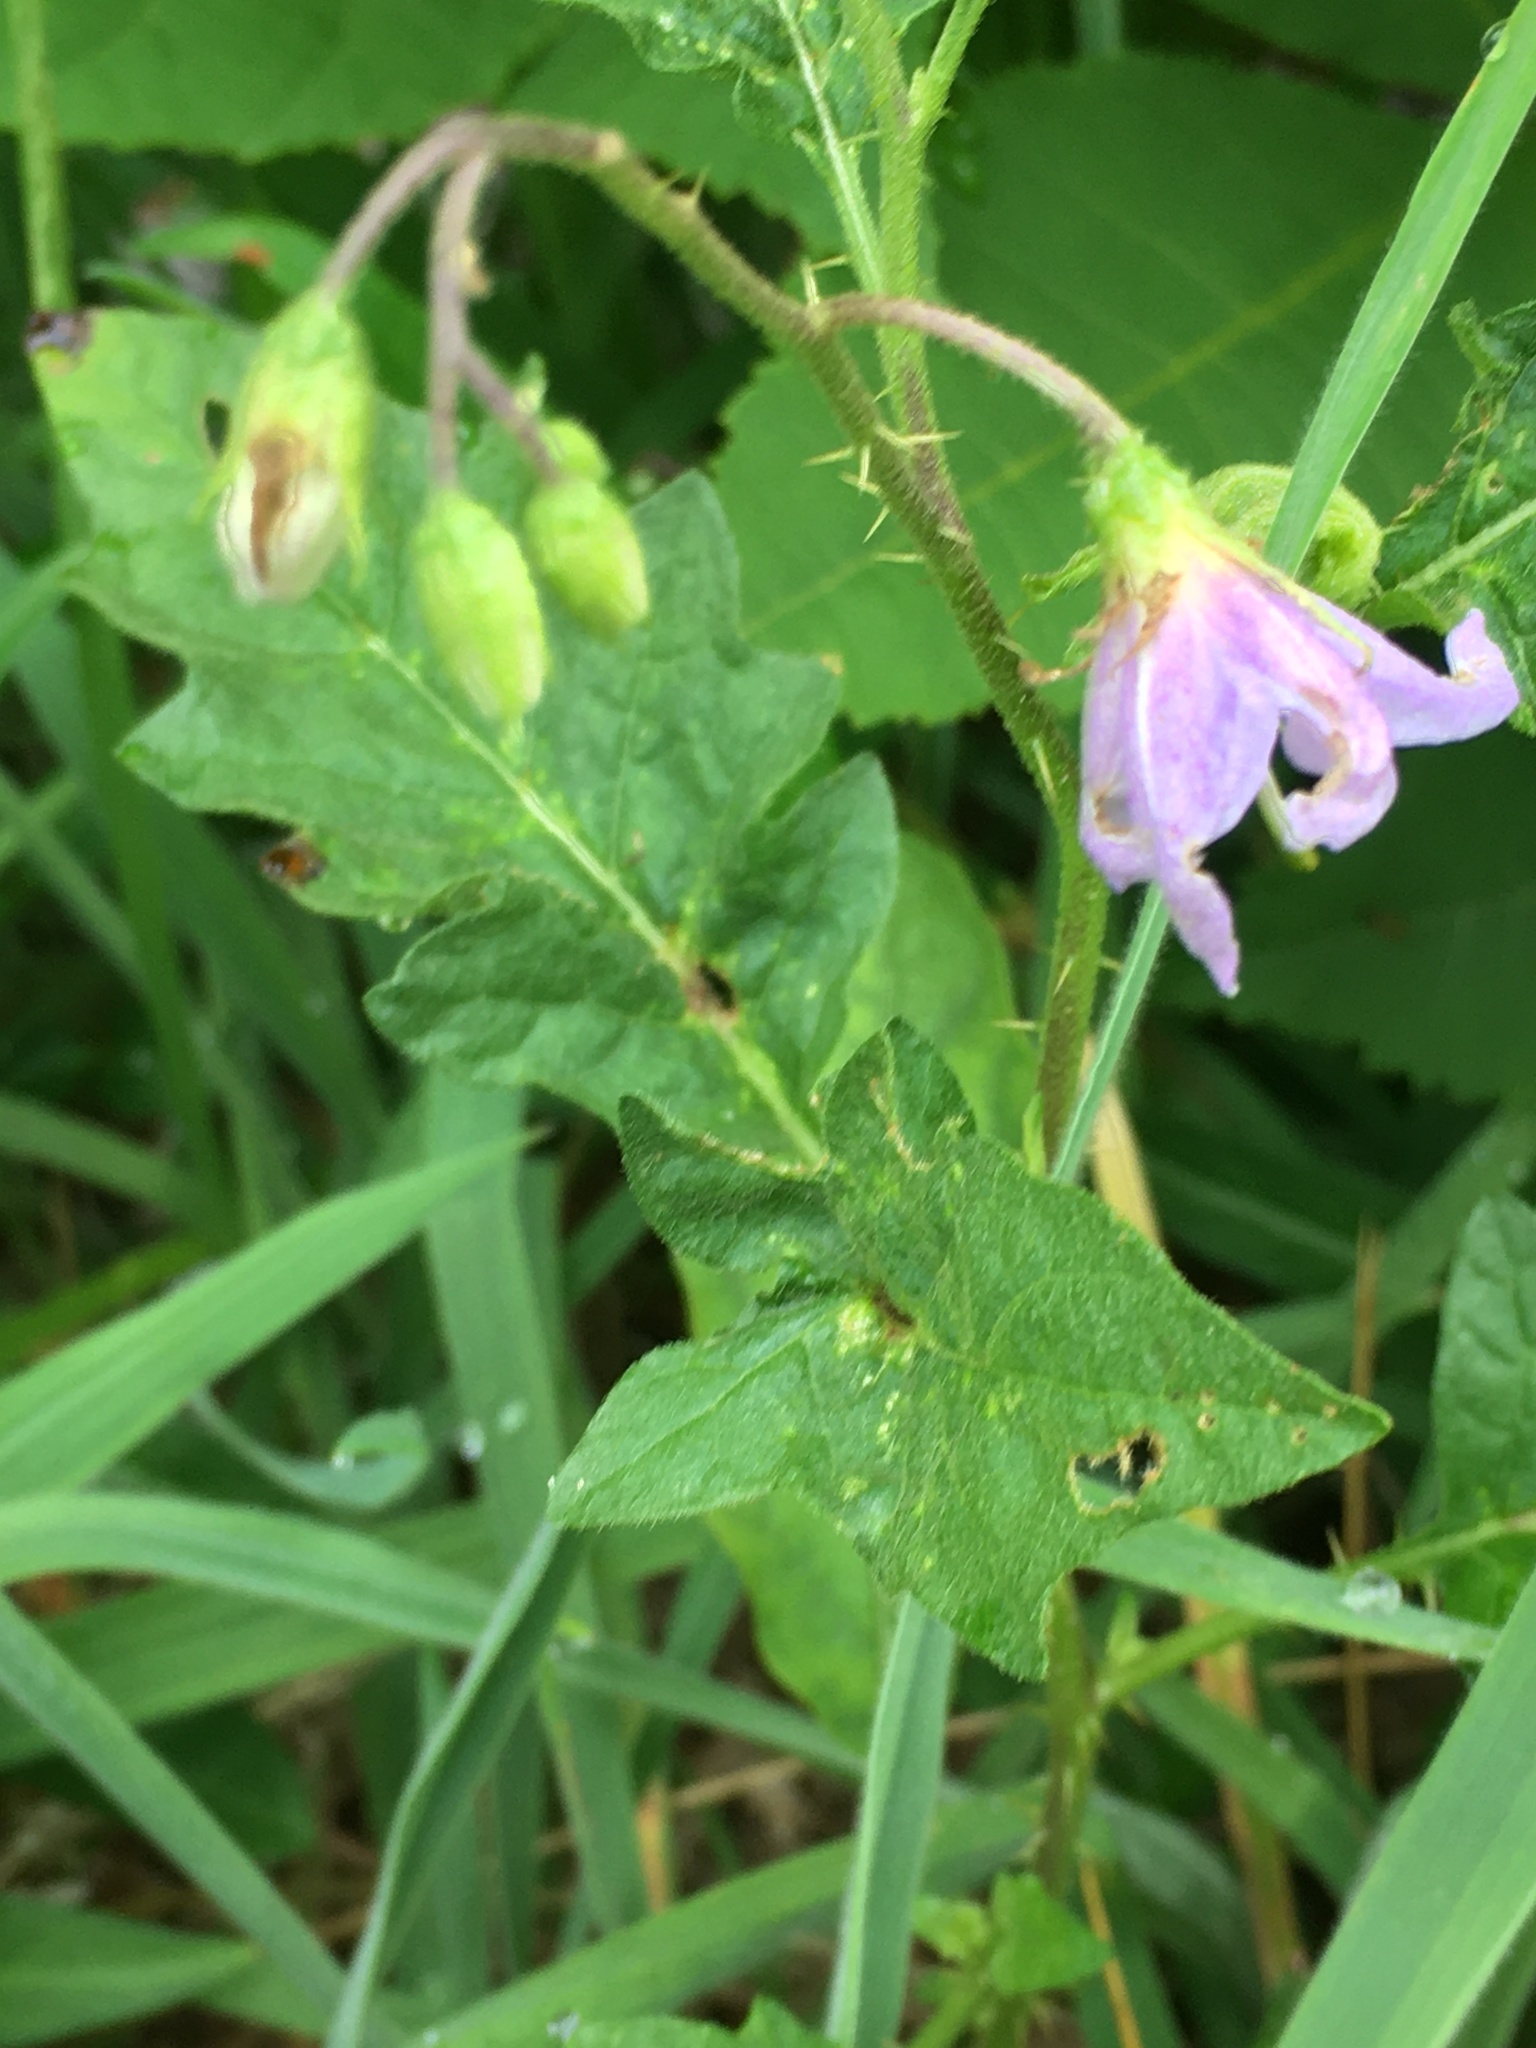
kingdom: Plantae
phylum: Tracheophyta
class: Magnoliopsida
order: Solanales
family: Solanaceae
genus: Solanum
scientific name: Solanum carolinense
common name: Horse-nettle
